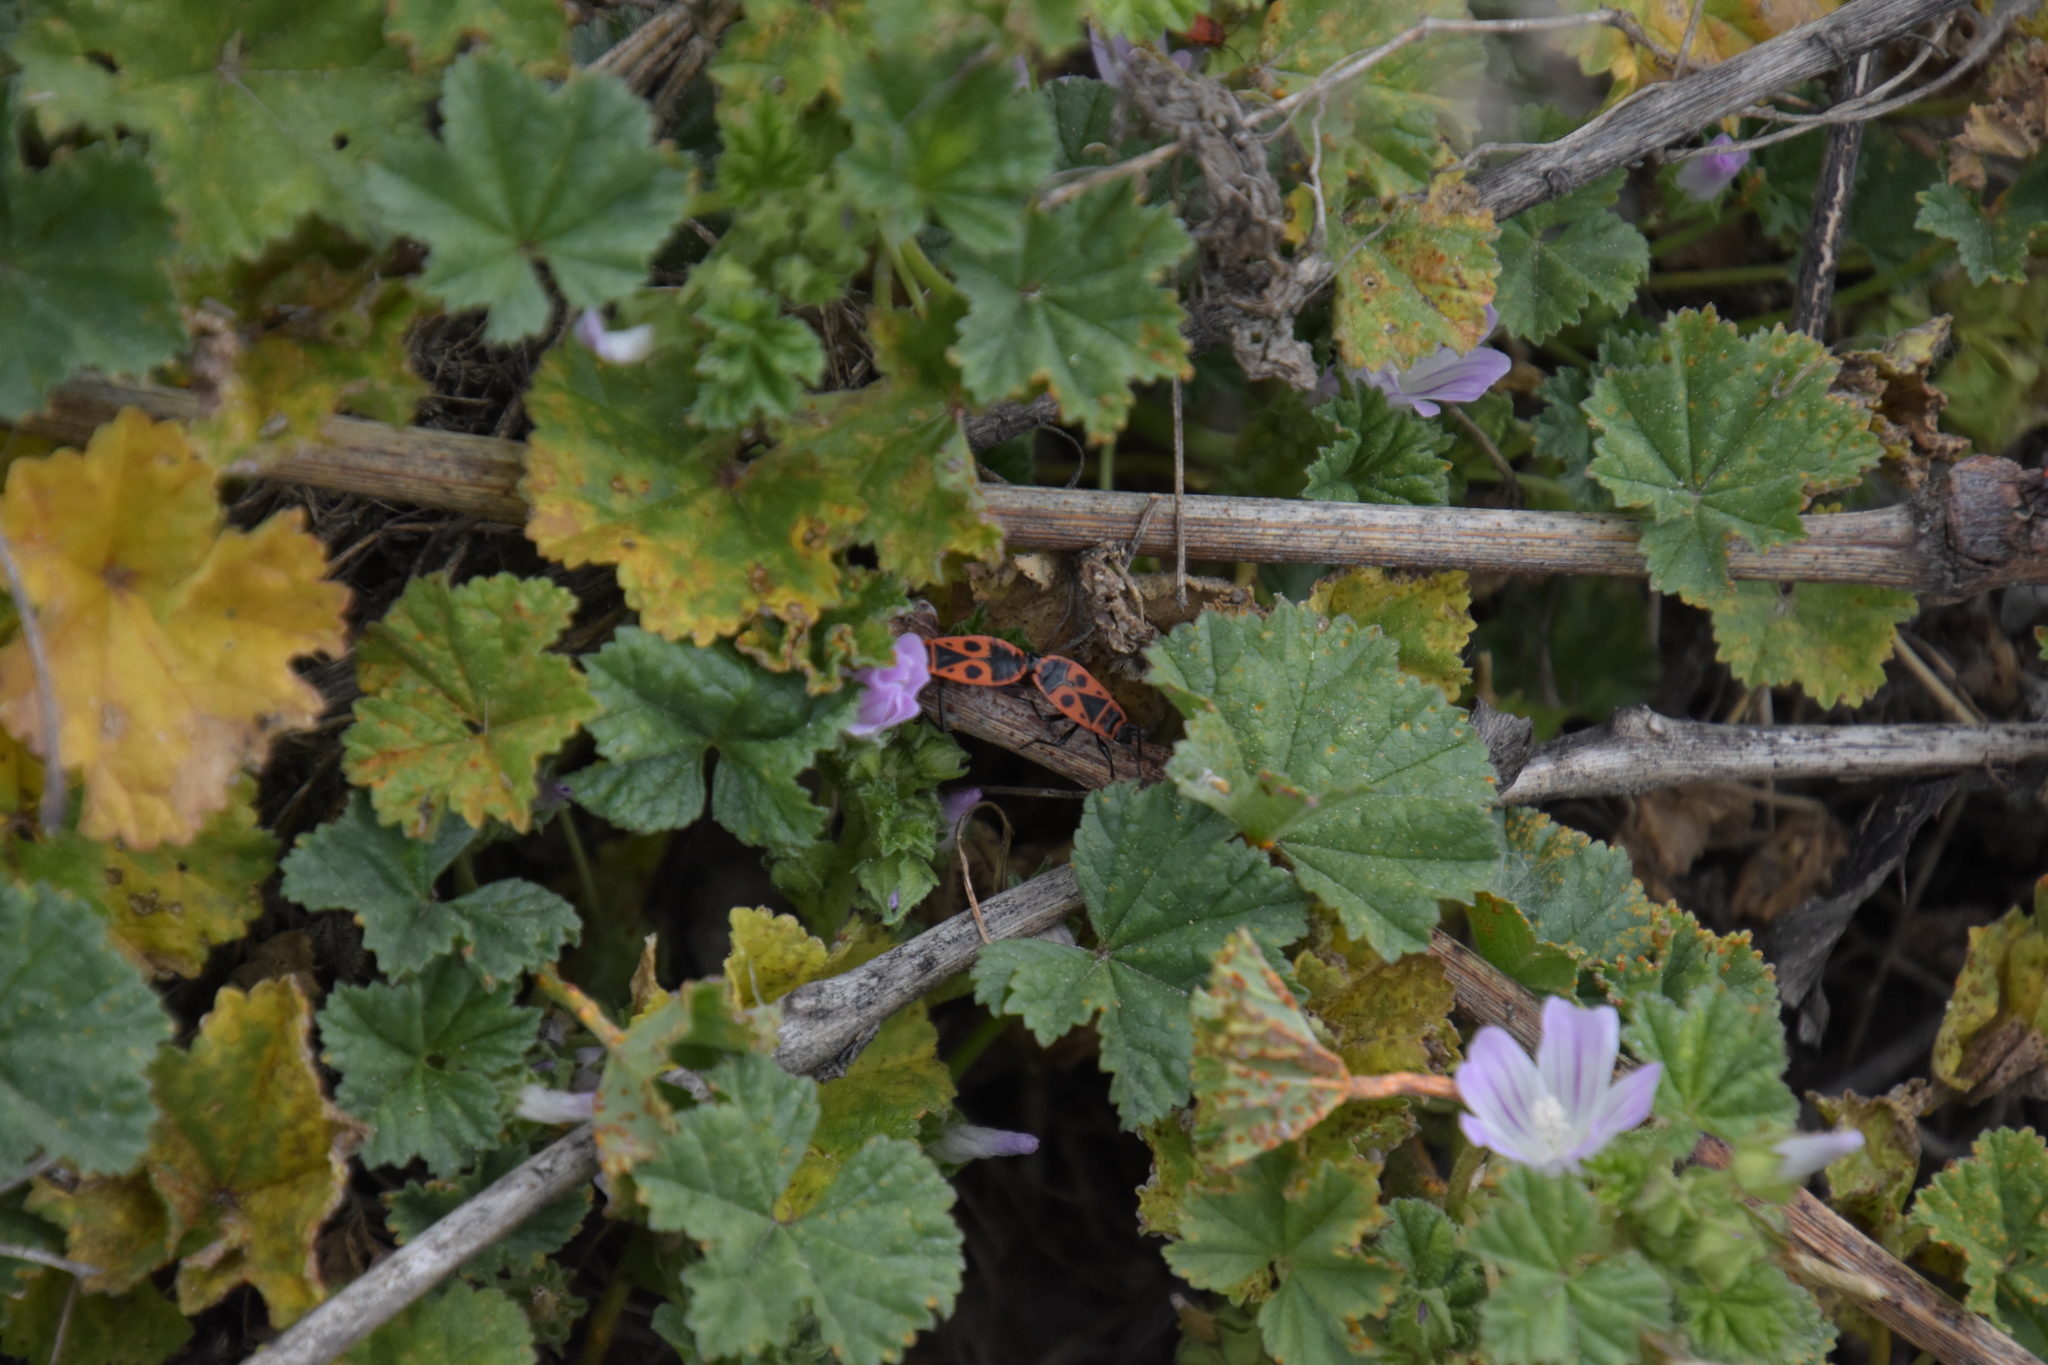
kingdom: Animalia
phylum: Arthropoda
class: Insecta
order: Hemiptera
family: Pyrrhocoridae
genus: Pyrrhocoris
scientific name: Pyrrhocoris apterus
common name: Firebug
